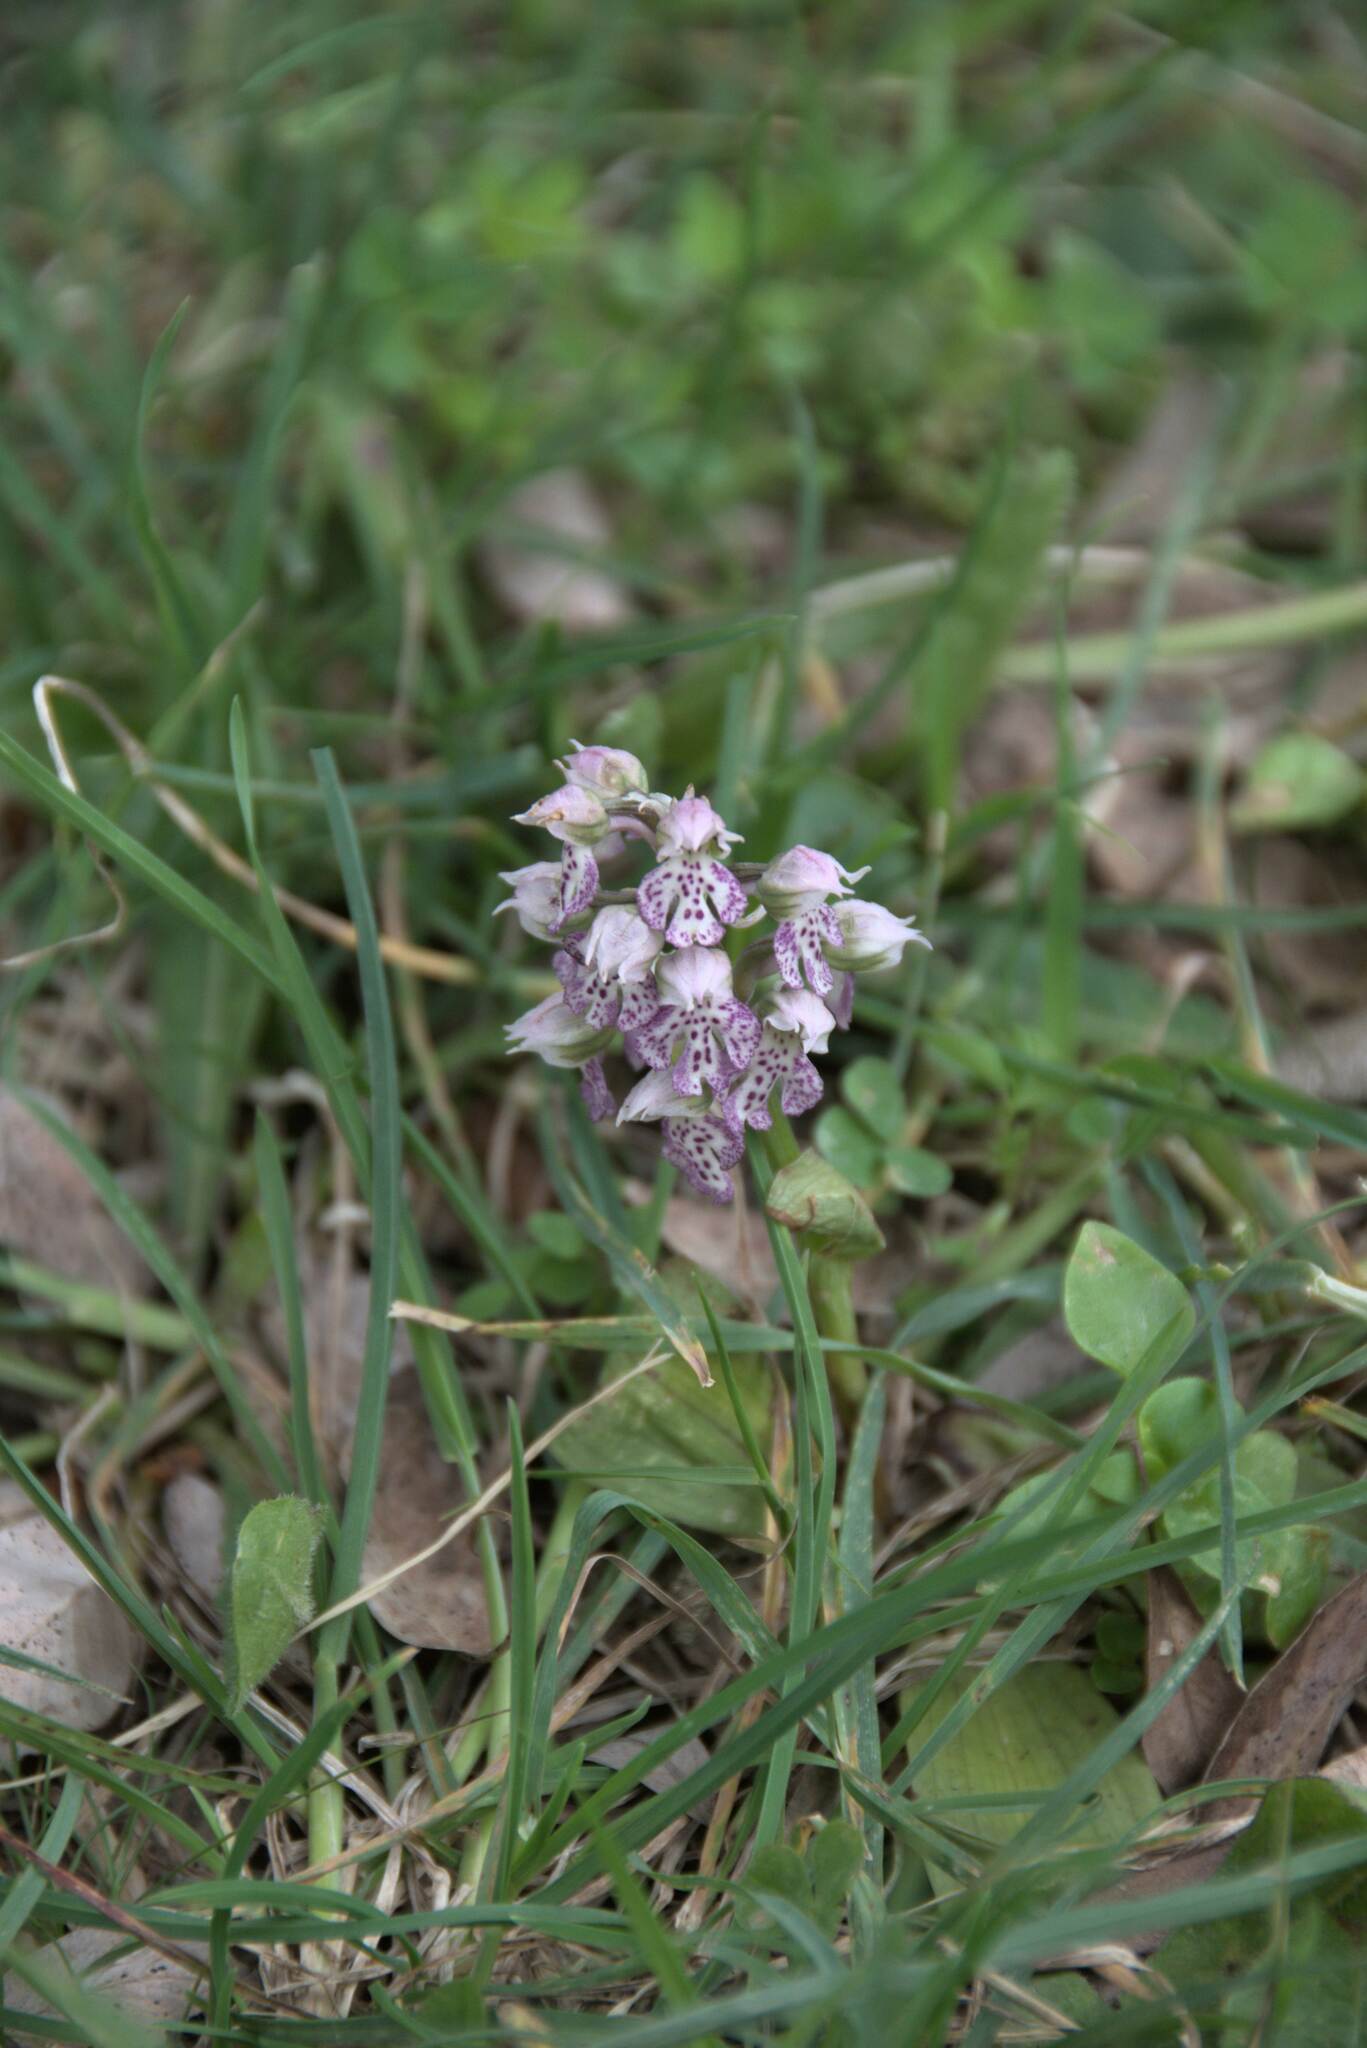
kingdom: Plantae
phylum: Tracheophyta
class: Liliopsida
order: Asparagales
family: Orchidaceae
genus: Neotinea
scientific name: Neotinea lactea
